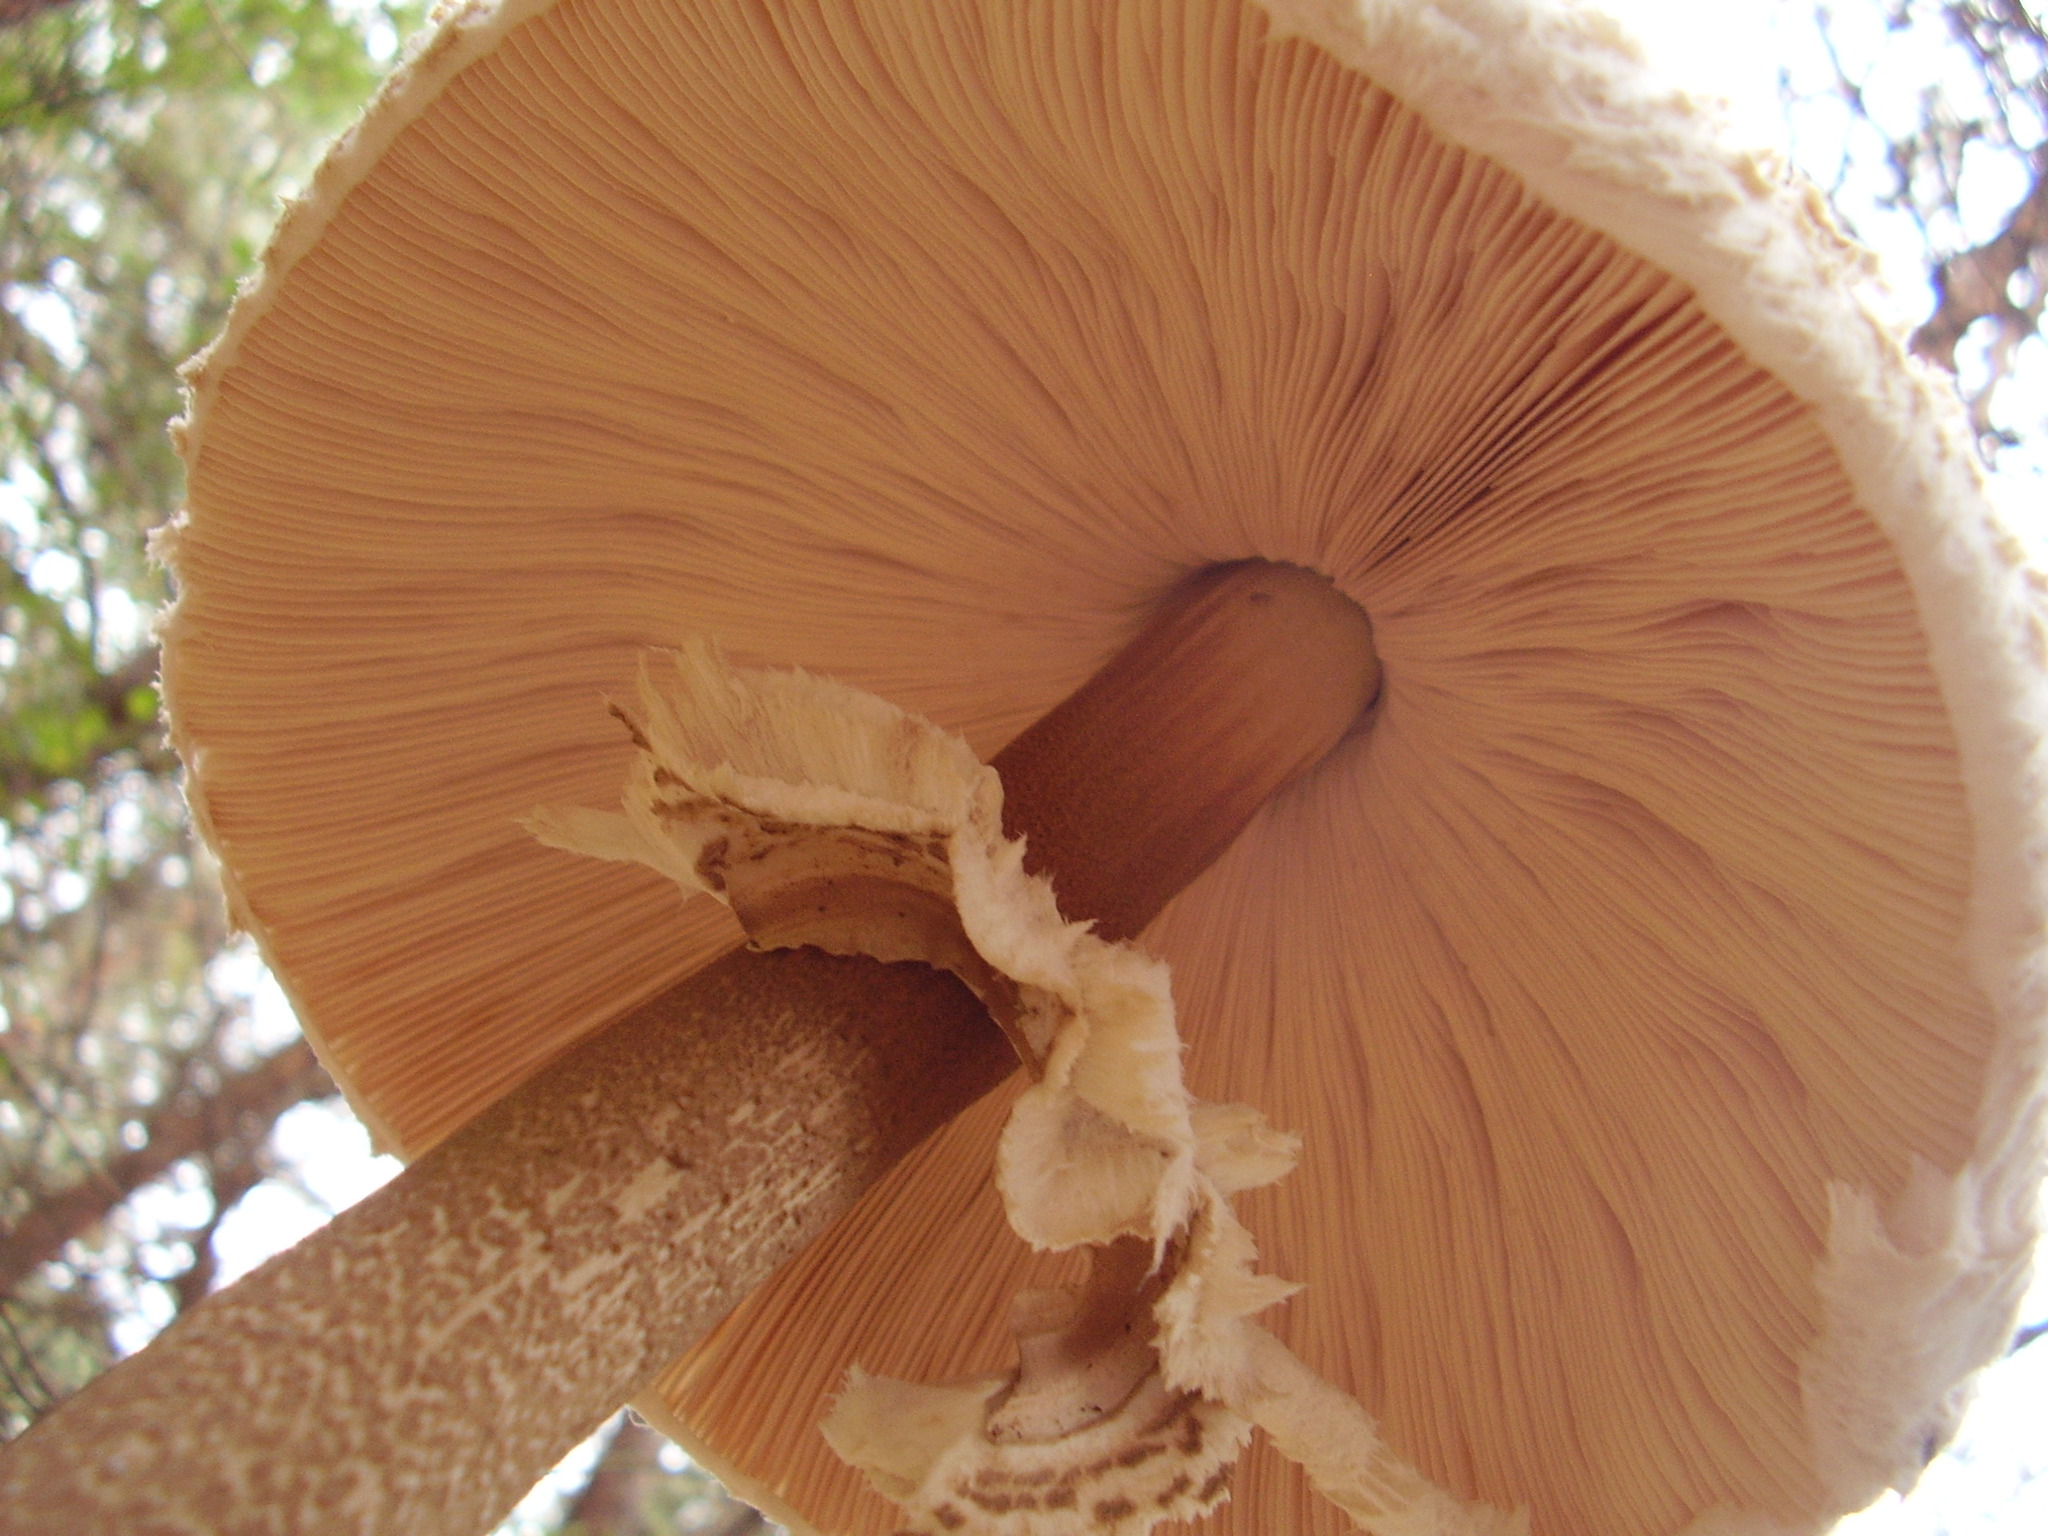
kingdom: Fungi
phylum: Basidiomycota
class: Agaricomycetes
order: Agaricales
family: Agaricaceae
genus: Macrolepiota
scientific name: Macrolepiota procera
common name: Parasol
